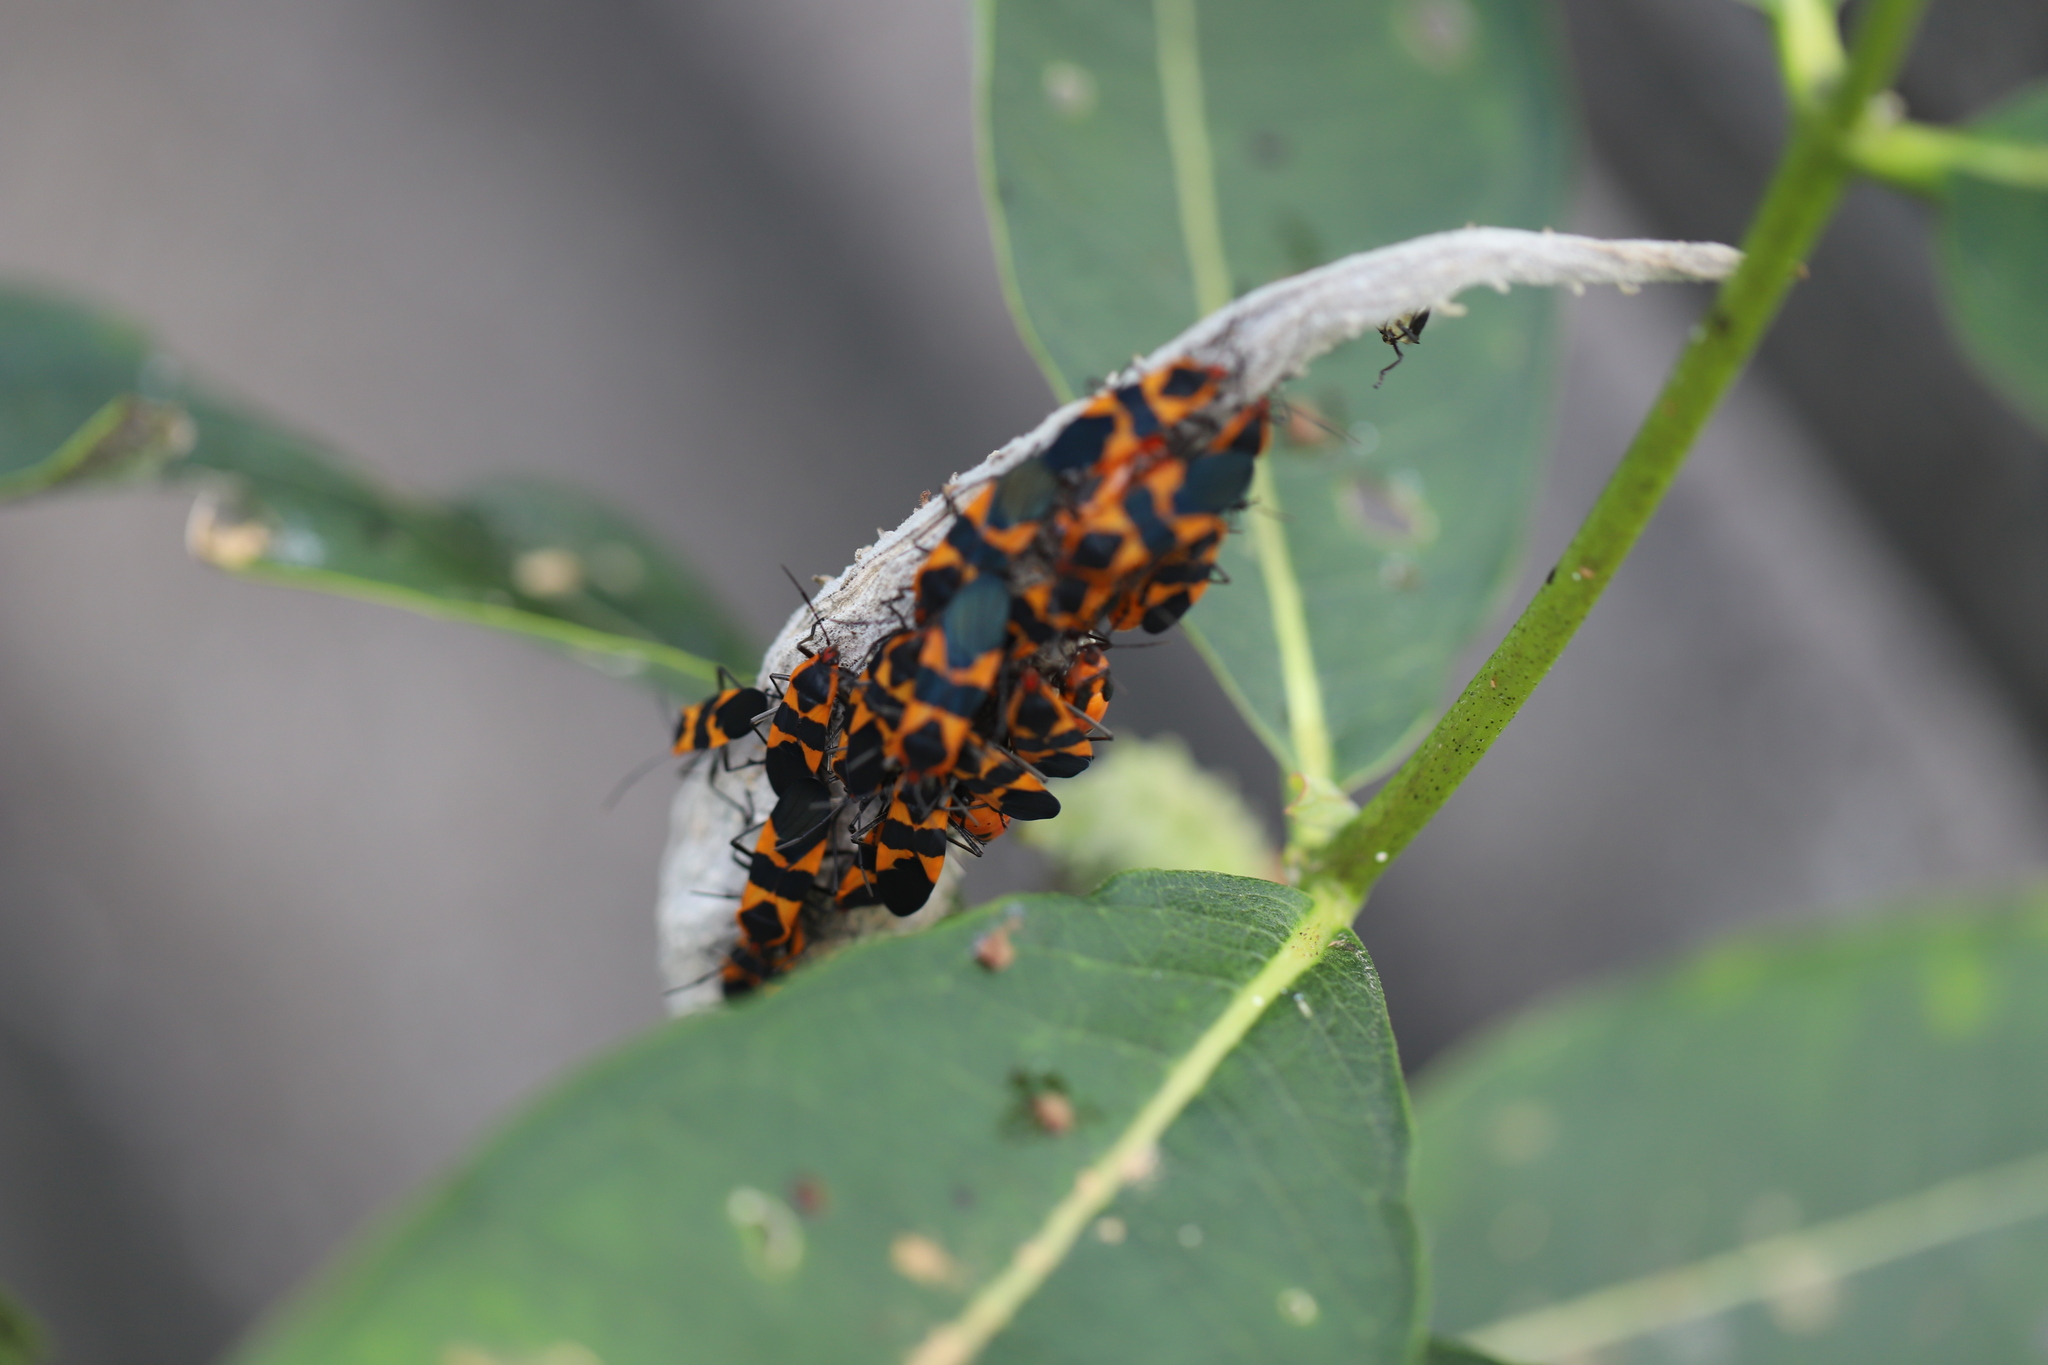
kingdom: Animalia
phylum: Arthropoda
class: Insecta
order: Hemiptera
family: Lygaeidae
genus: Oncopeltus
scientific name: Oncopeltus fasciatus
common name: Large milkweed bug
